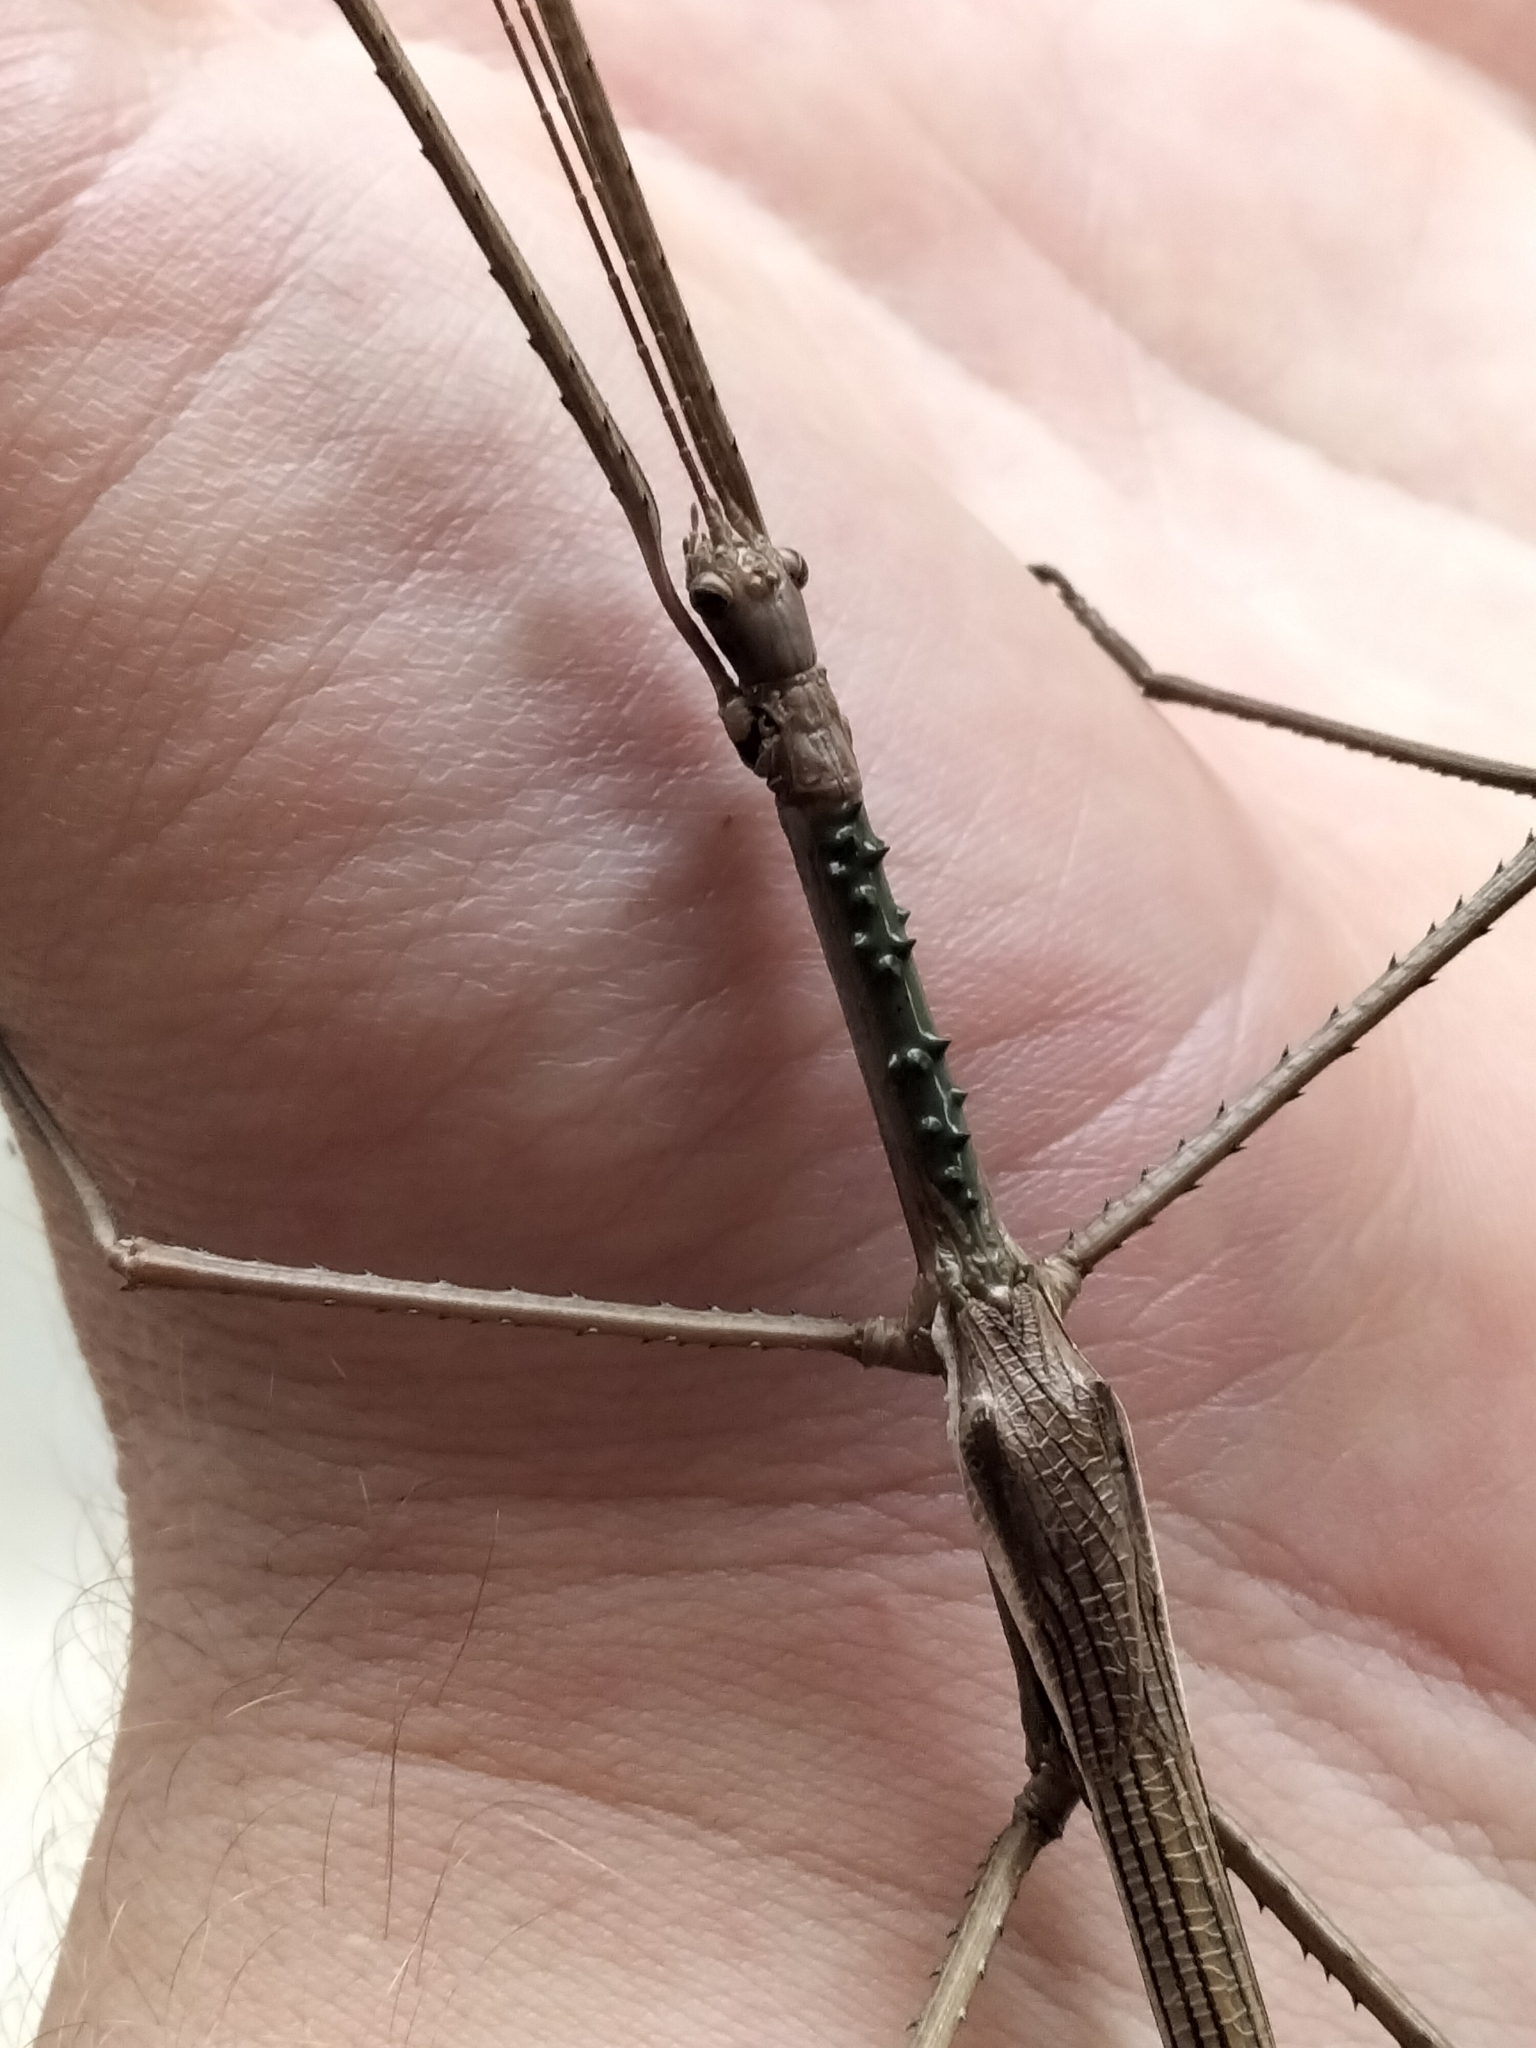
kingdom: Animalia
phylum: Arthropoda
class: Insecta
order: Phasmida
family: Phasmatidae
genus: Acrophylla
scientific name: Acrophylla wuelfingi
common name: Wülfing's stick insect
